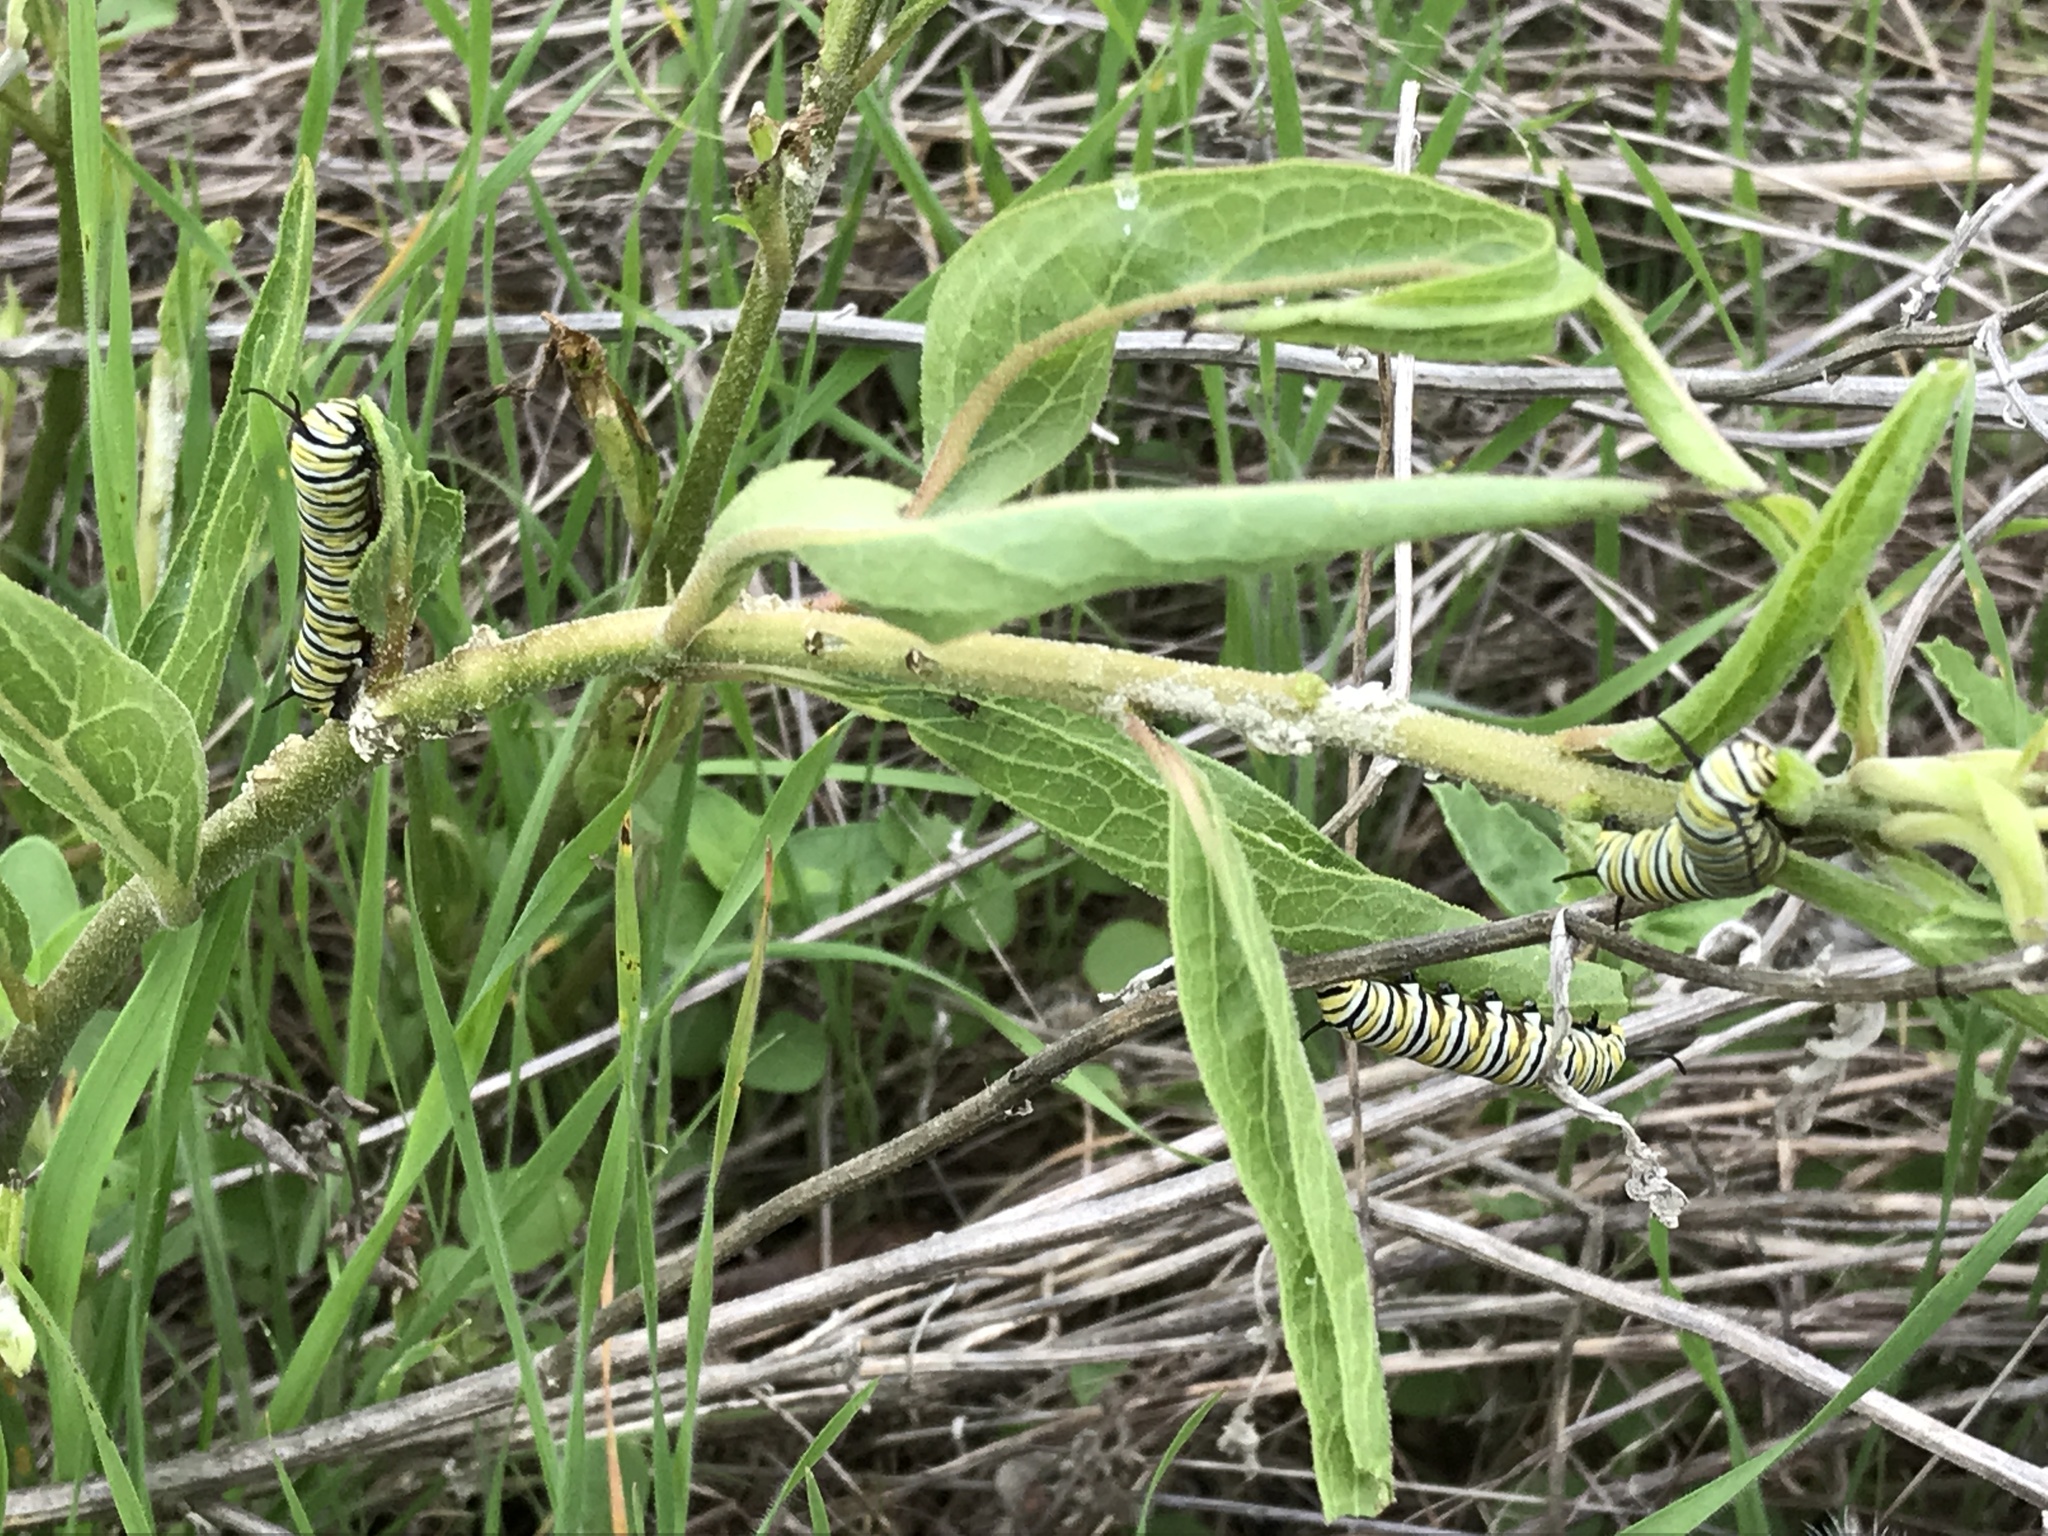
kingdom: Animalia
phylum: Arthropoda
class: Insecta
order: Lepidoptera
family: Nymphalidae
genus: Danaus
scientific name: Danaus plexippus
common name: Monarch
